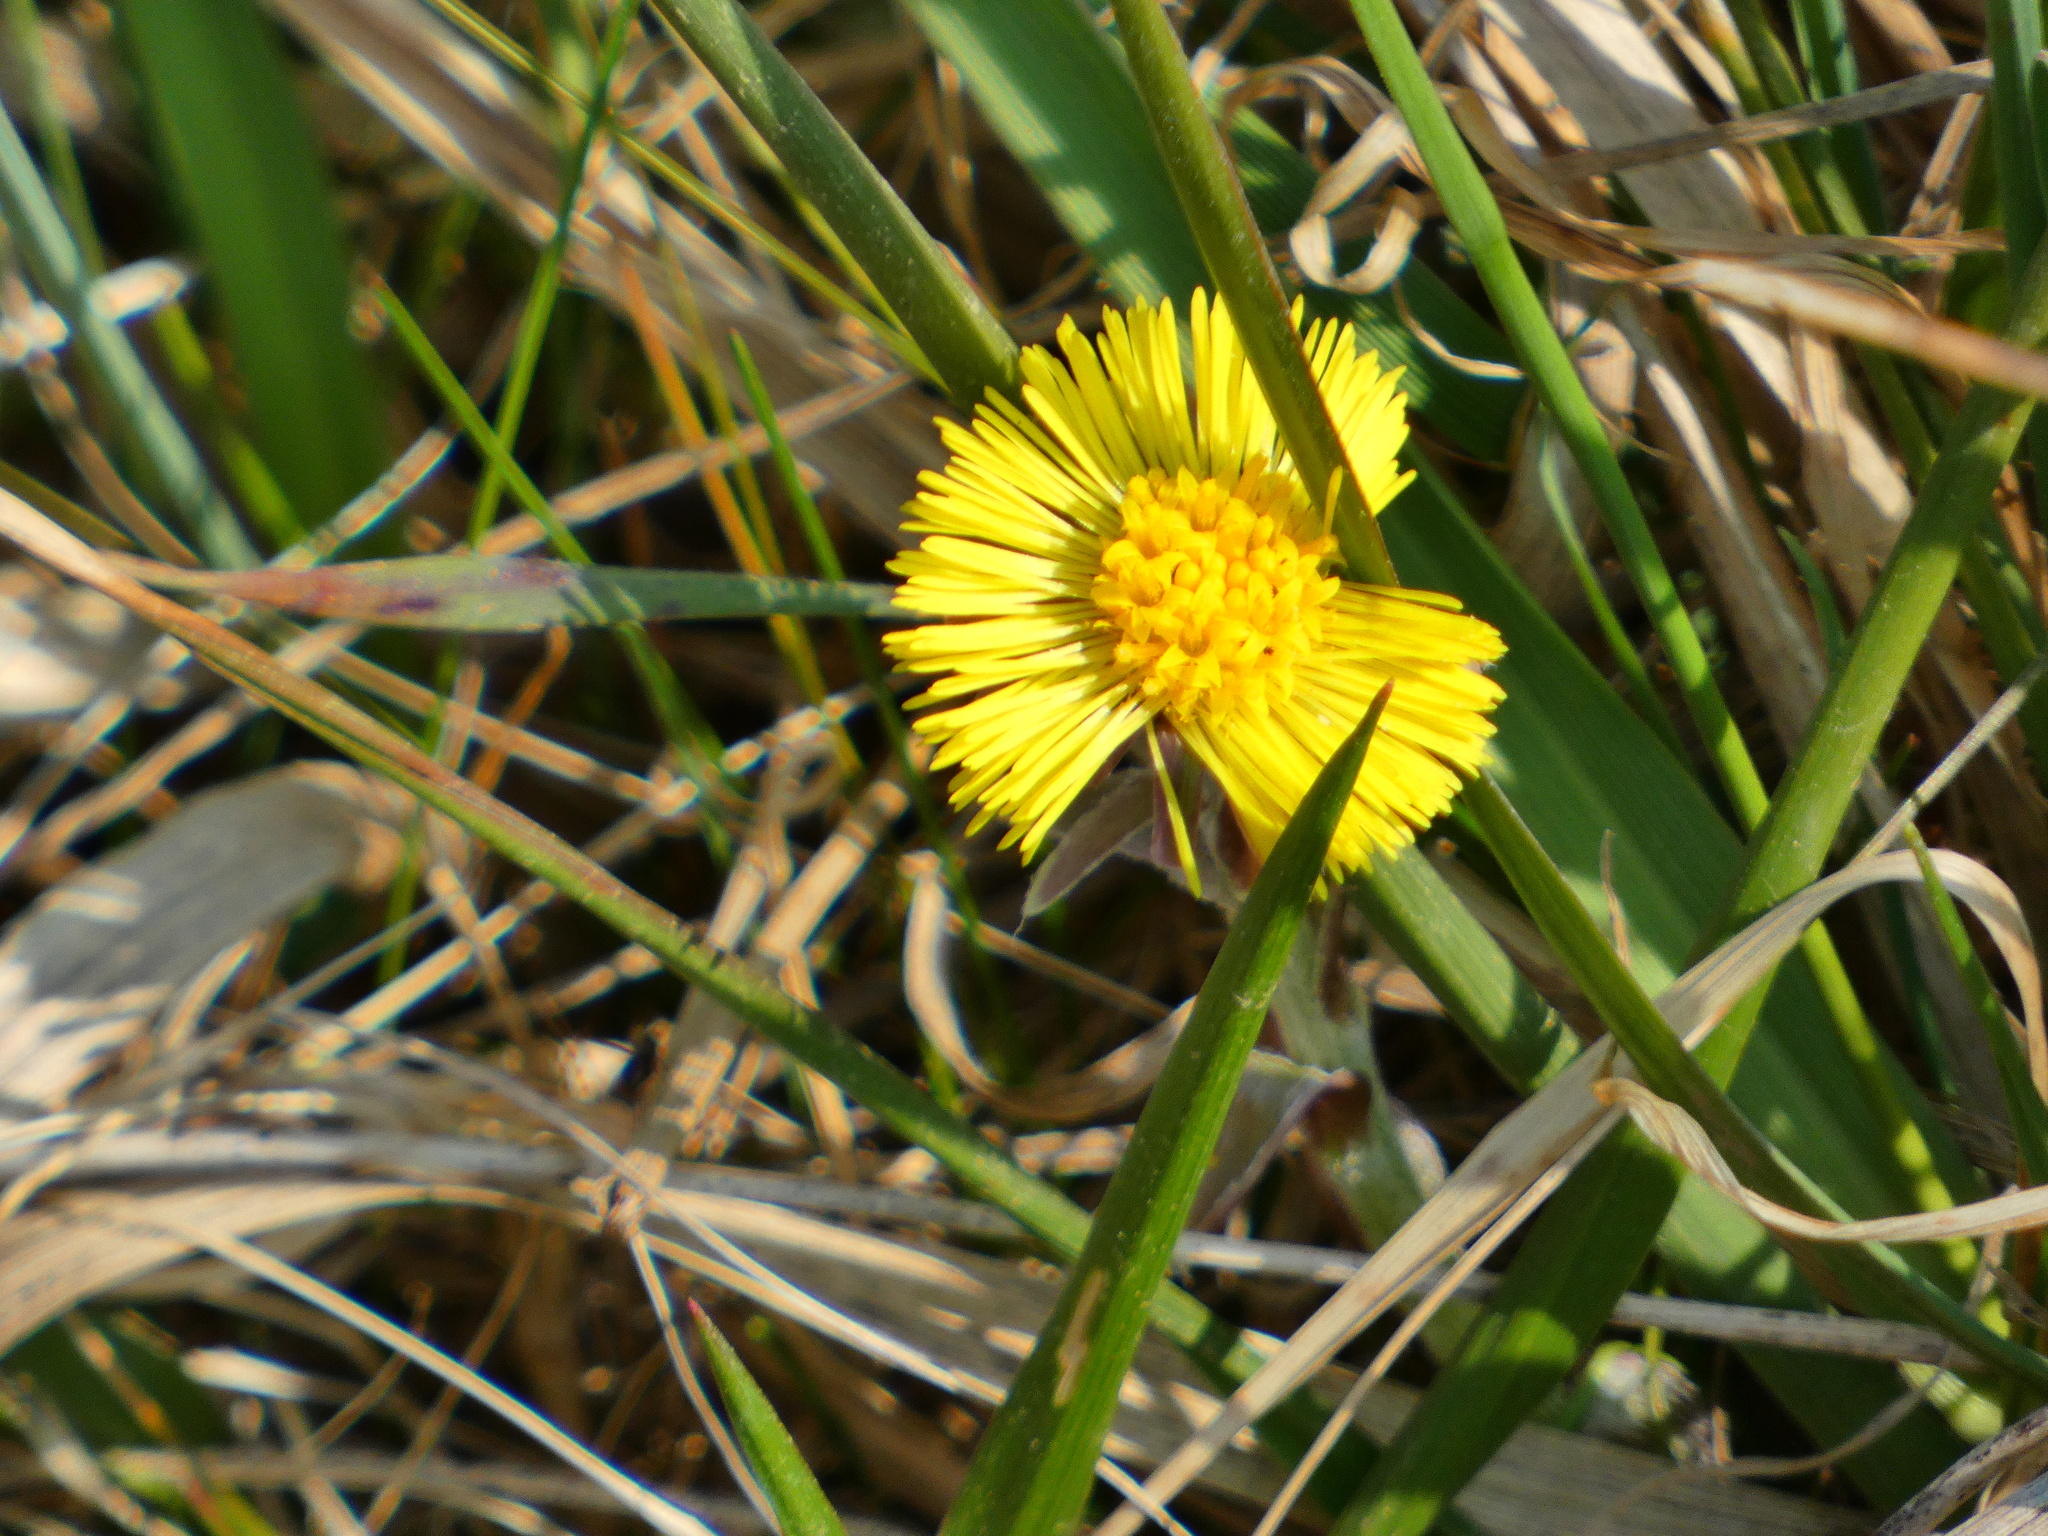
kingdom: Plantae
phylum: Tracheophyta
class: Magnoliopsida
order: Asterales
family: Asteraceae
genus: Tussilago
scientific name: Tussilago farfara
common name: Coltsfoot
